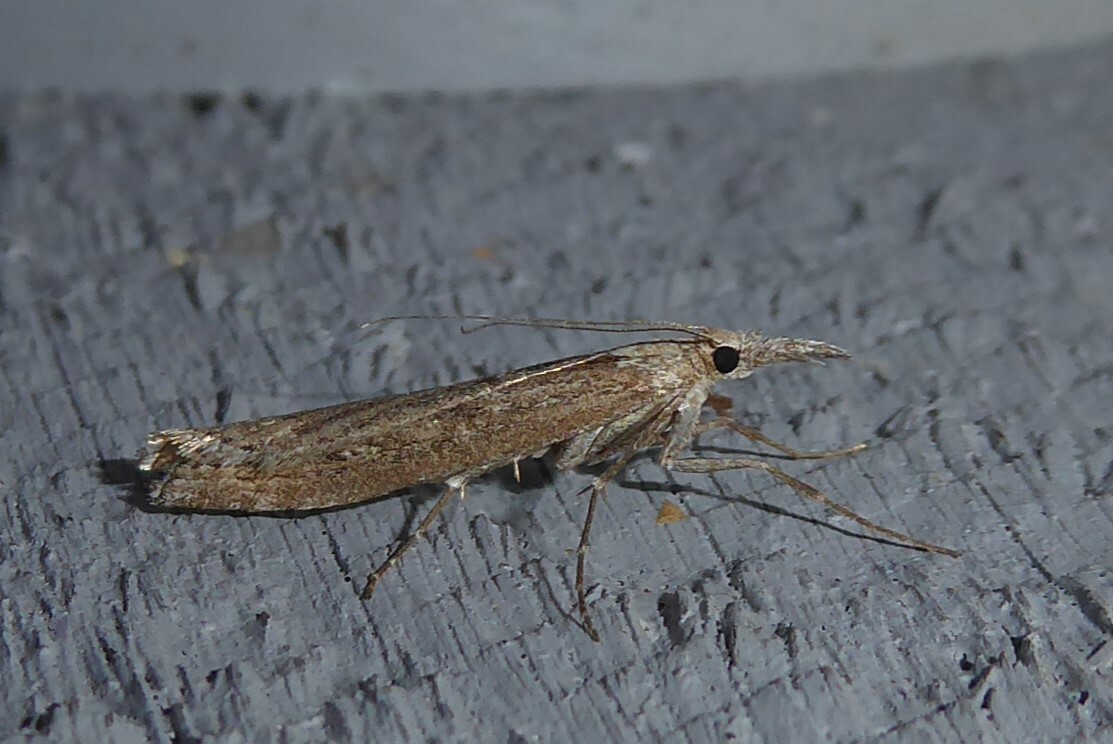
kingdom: Animalia
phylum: Arthropoda
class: Insecta
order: Lepidoptera
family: Crambidae
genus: Orocrambus
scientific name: Orocrambus cyclopicus
